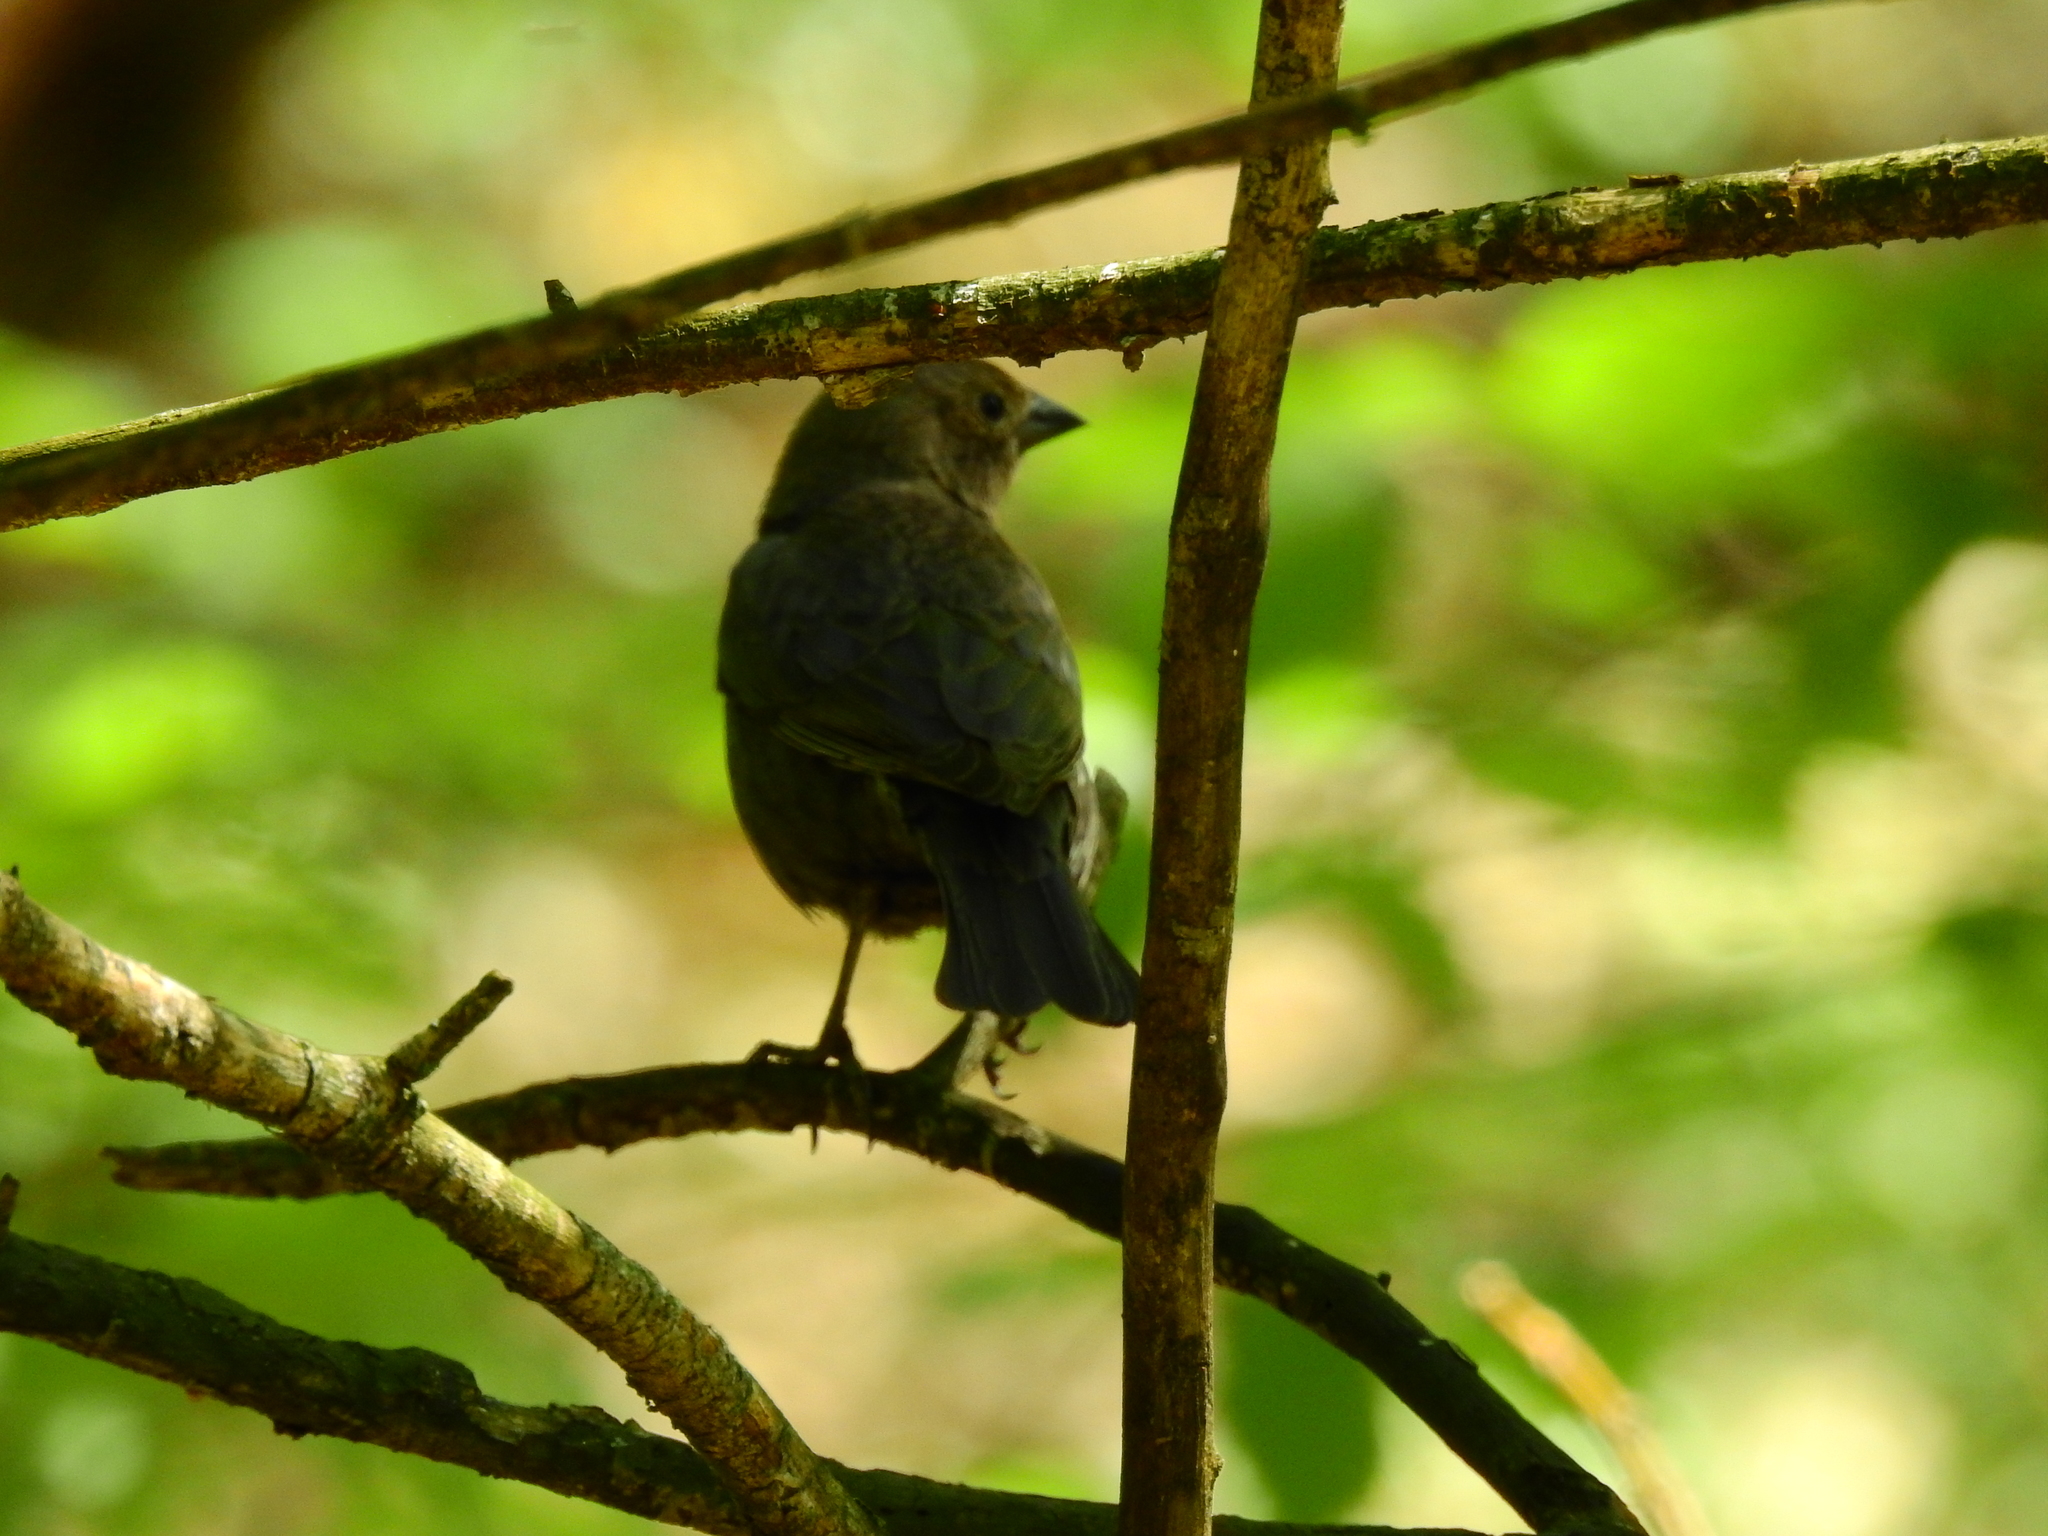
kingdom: Animalia
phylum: Chordata
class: Aves
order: Passeriformes
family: Icteridae
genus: Molothrus
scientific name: Molothrus ater
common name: Brown-headed cowbird
